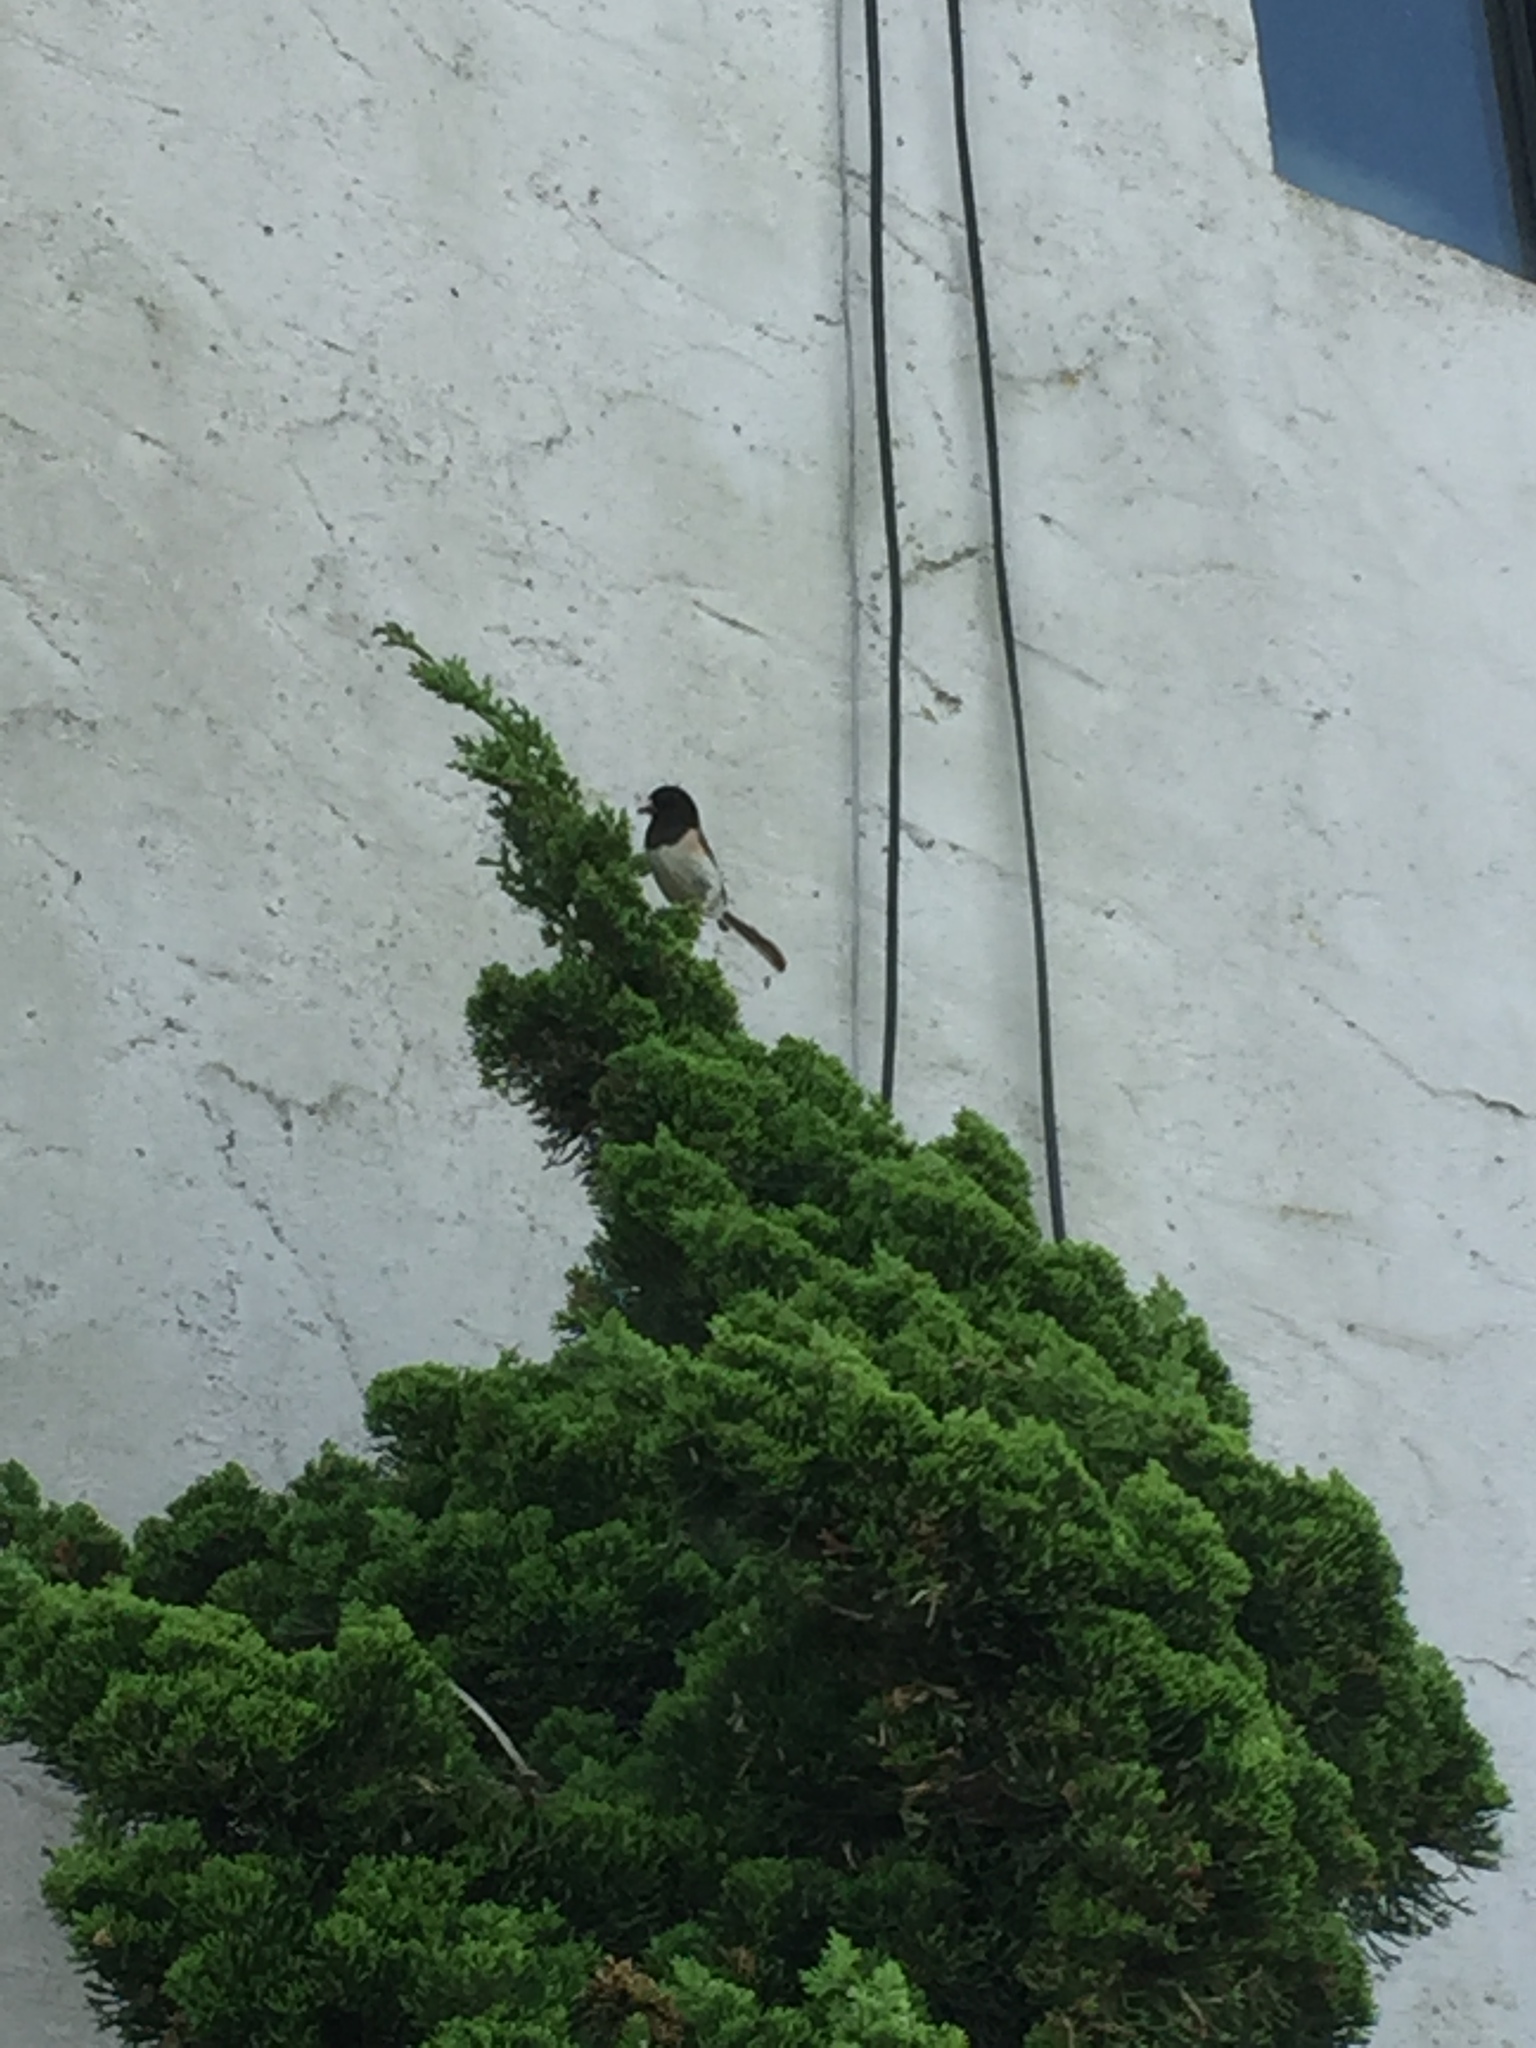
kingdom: Animalia
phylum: Chordata
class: Aves
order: Passeriformes
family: Passerellidae
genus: Junco
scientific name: Junco hyemalis
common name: Dark-eyed junco
